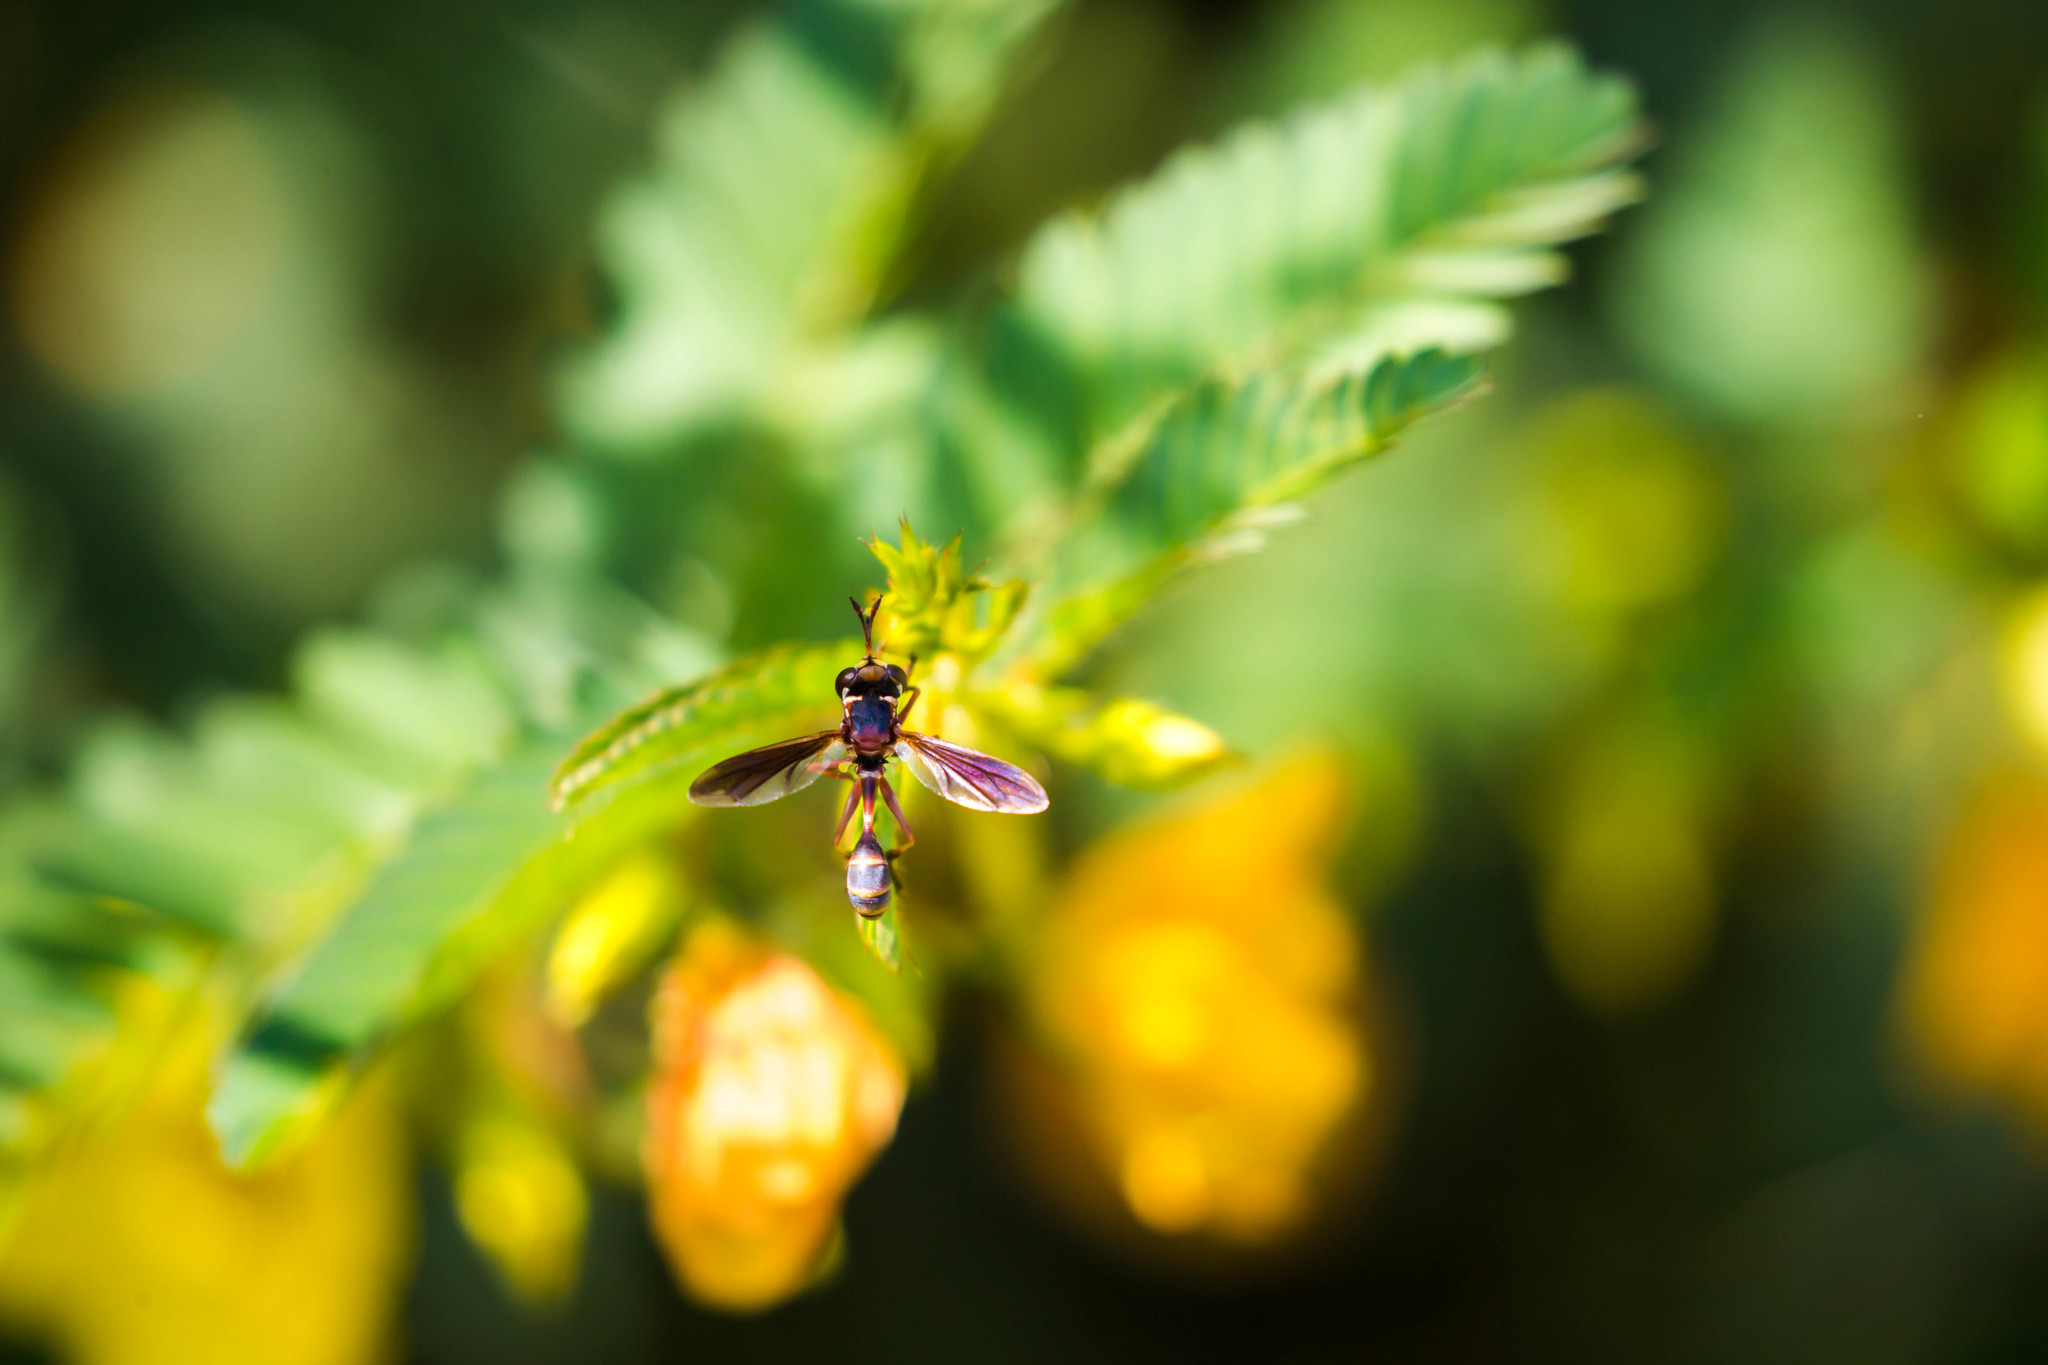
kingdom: Animalia
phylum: Arthropoda
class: Insecta
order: Diptera
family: Conopidae
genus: Physocephala
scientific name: Physocephala sagittaria
